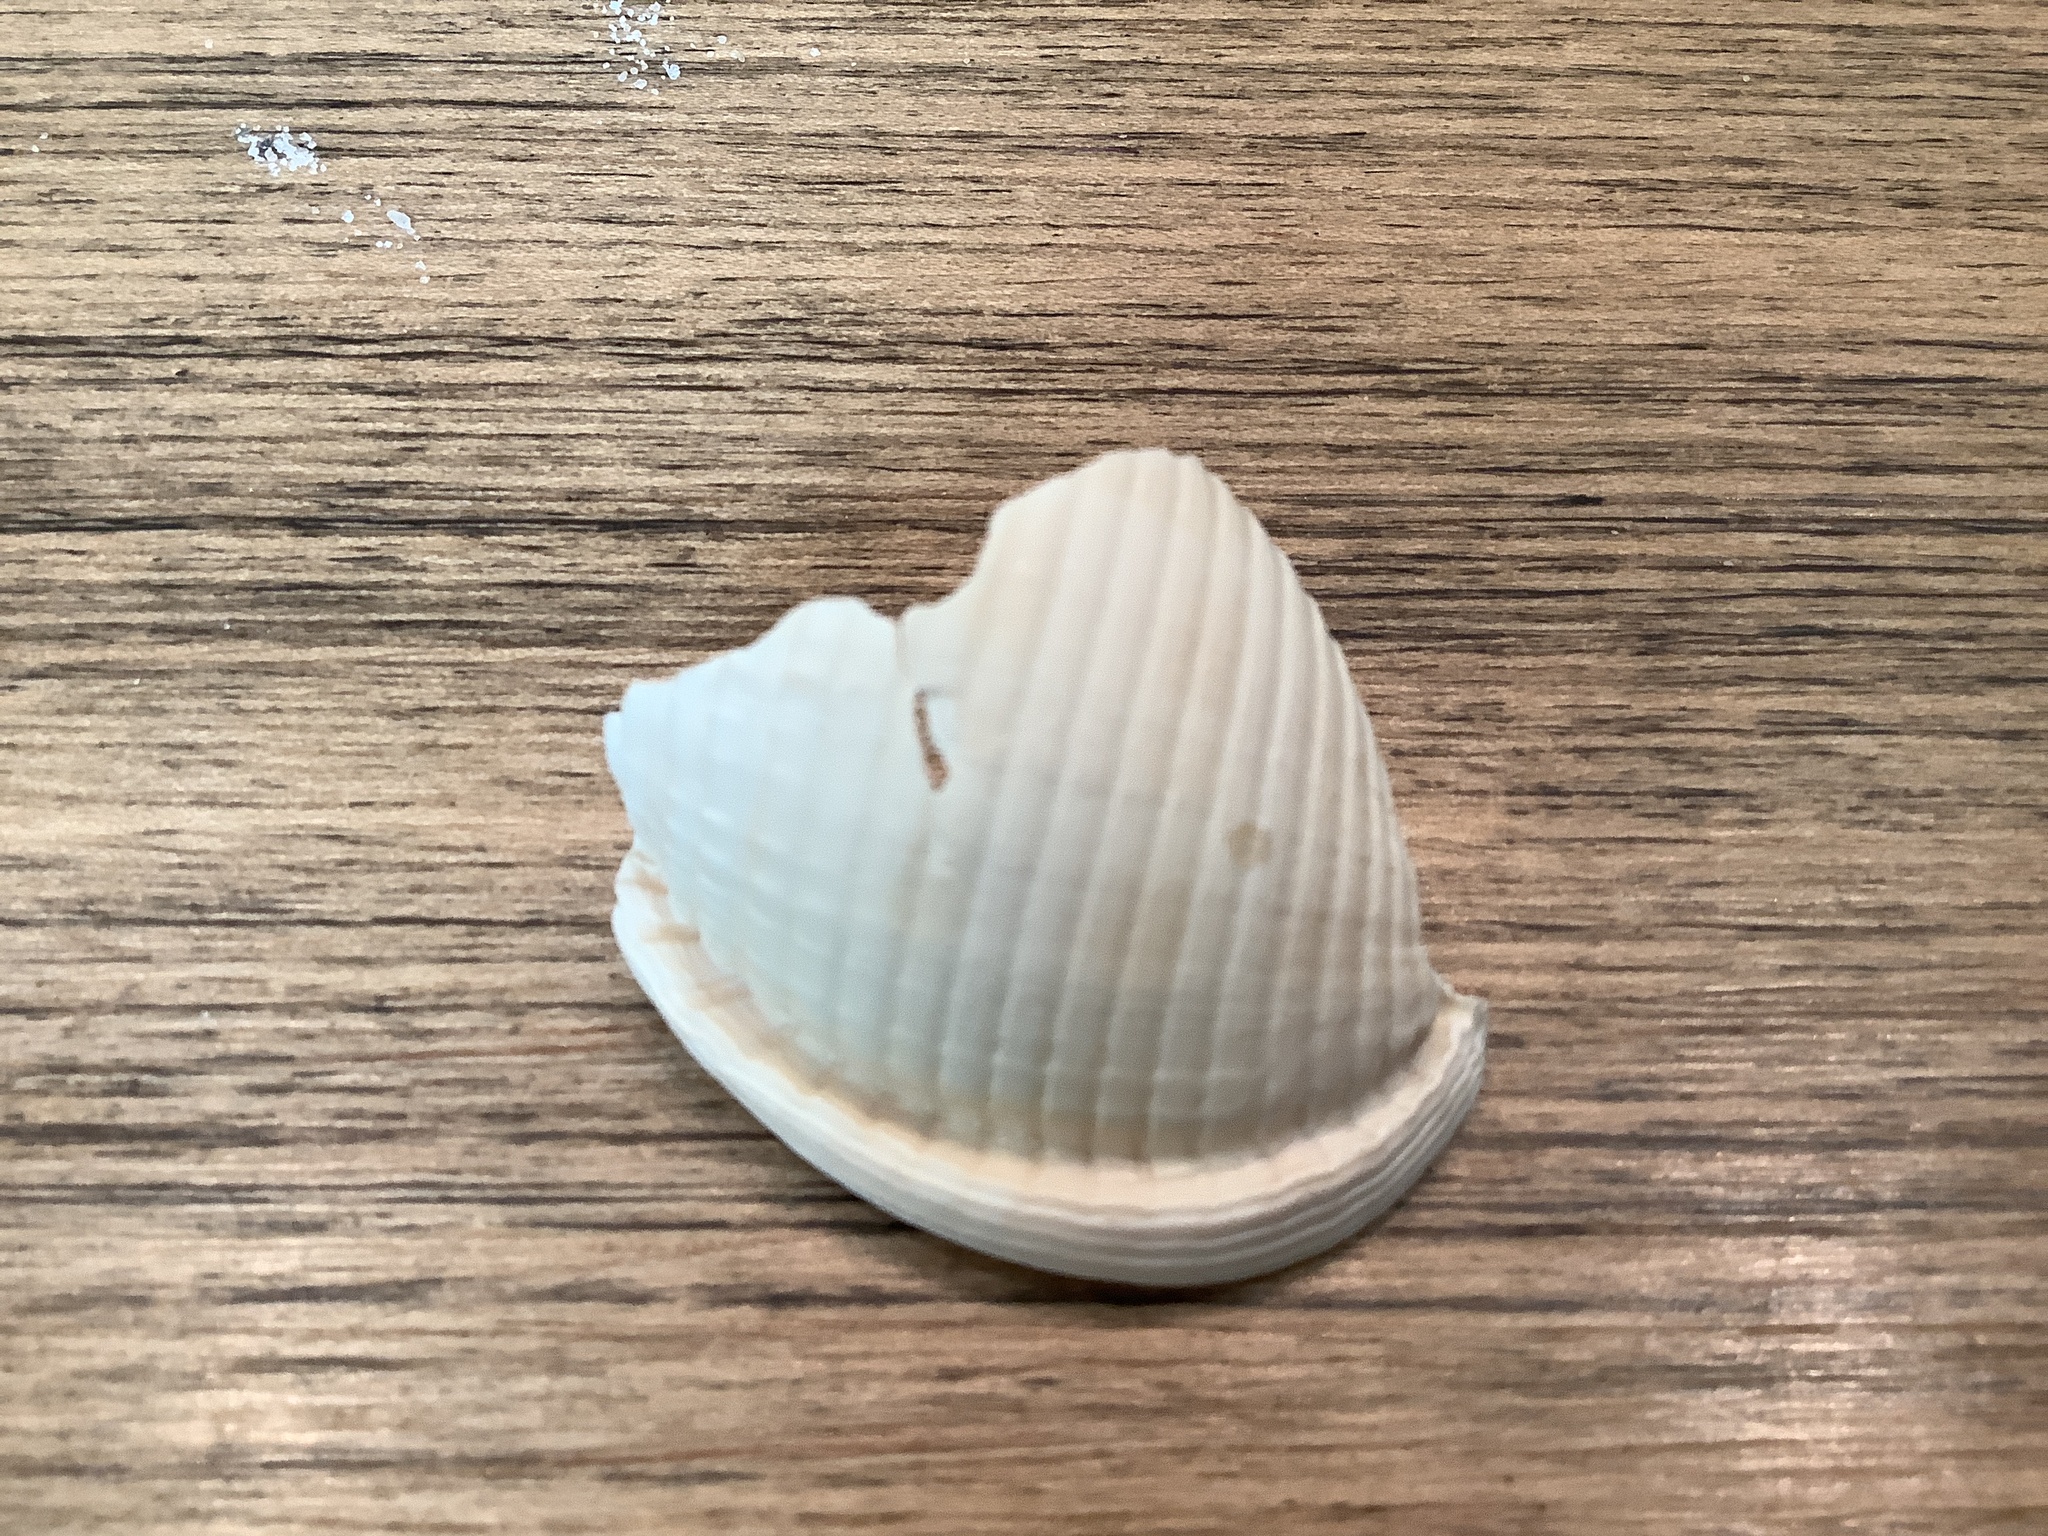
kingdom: Animalia
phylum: Mollusca
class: Gastropoda
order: Littorinimorpha
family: Cassidae
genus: Semicassis
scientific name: Semicassis granulata
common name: Scotch bonnet
